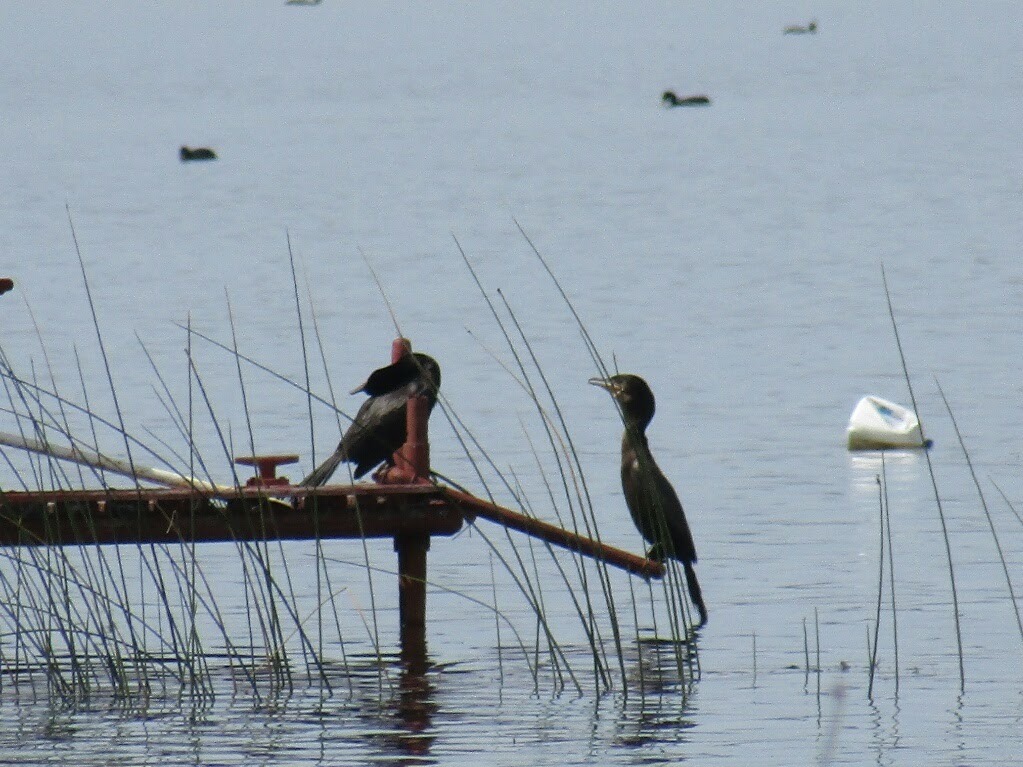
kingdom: Animalia
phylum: Chordata
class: Aves
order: Suliformes
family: Phalacrocoracidae
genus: Phalacrocorax
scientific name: Phalacrocorax brasilianus
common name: Neotropic cormorant
